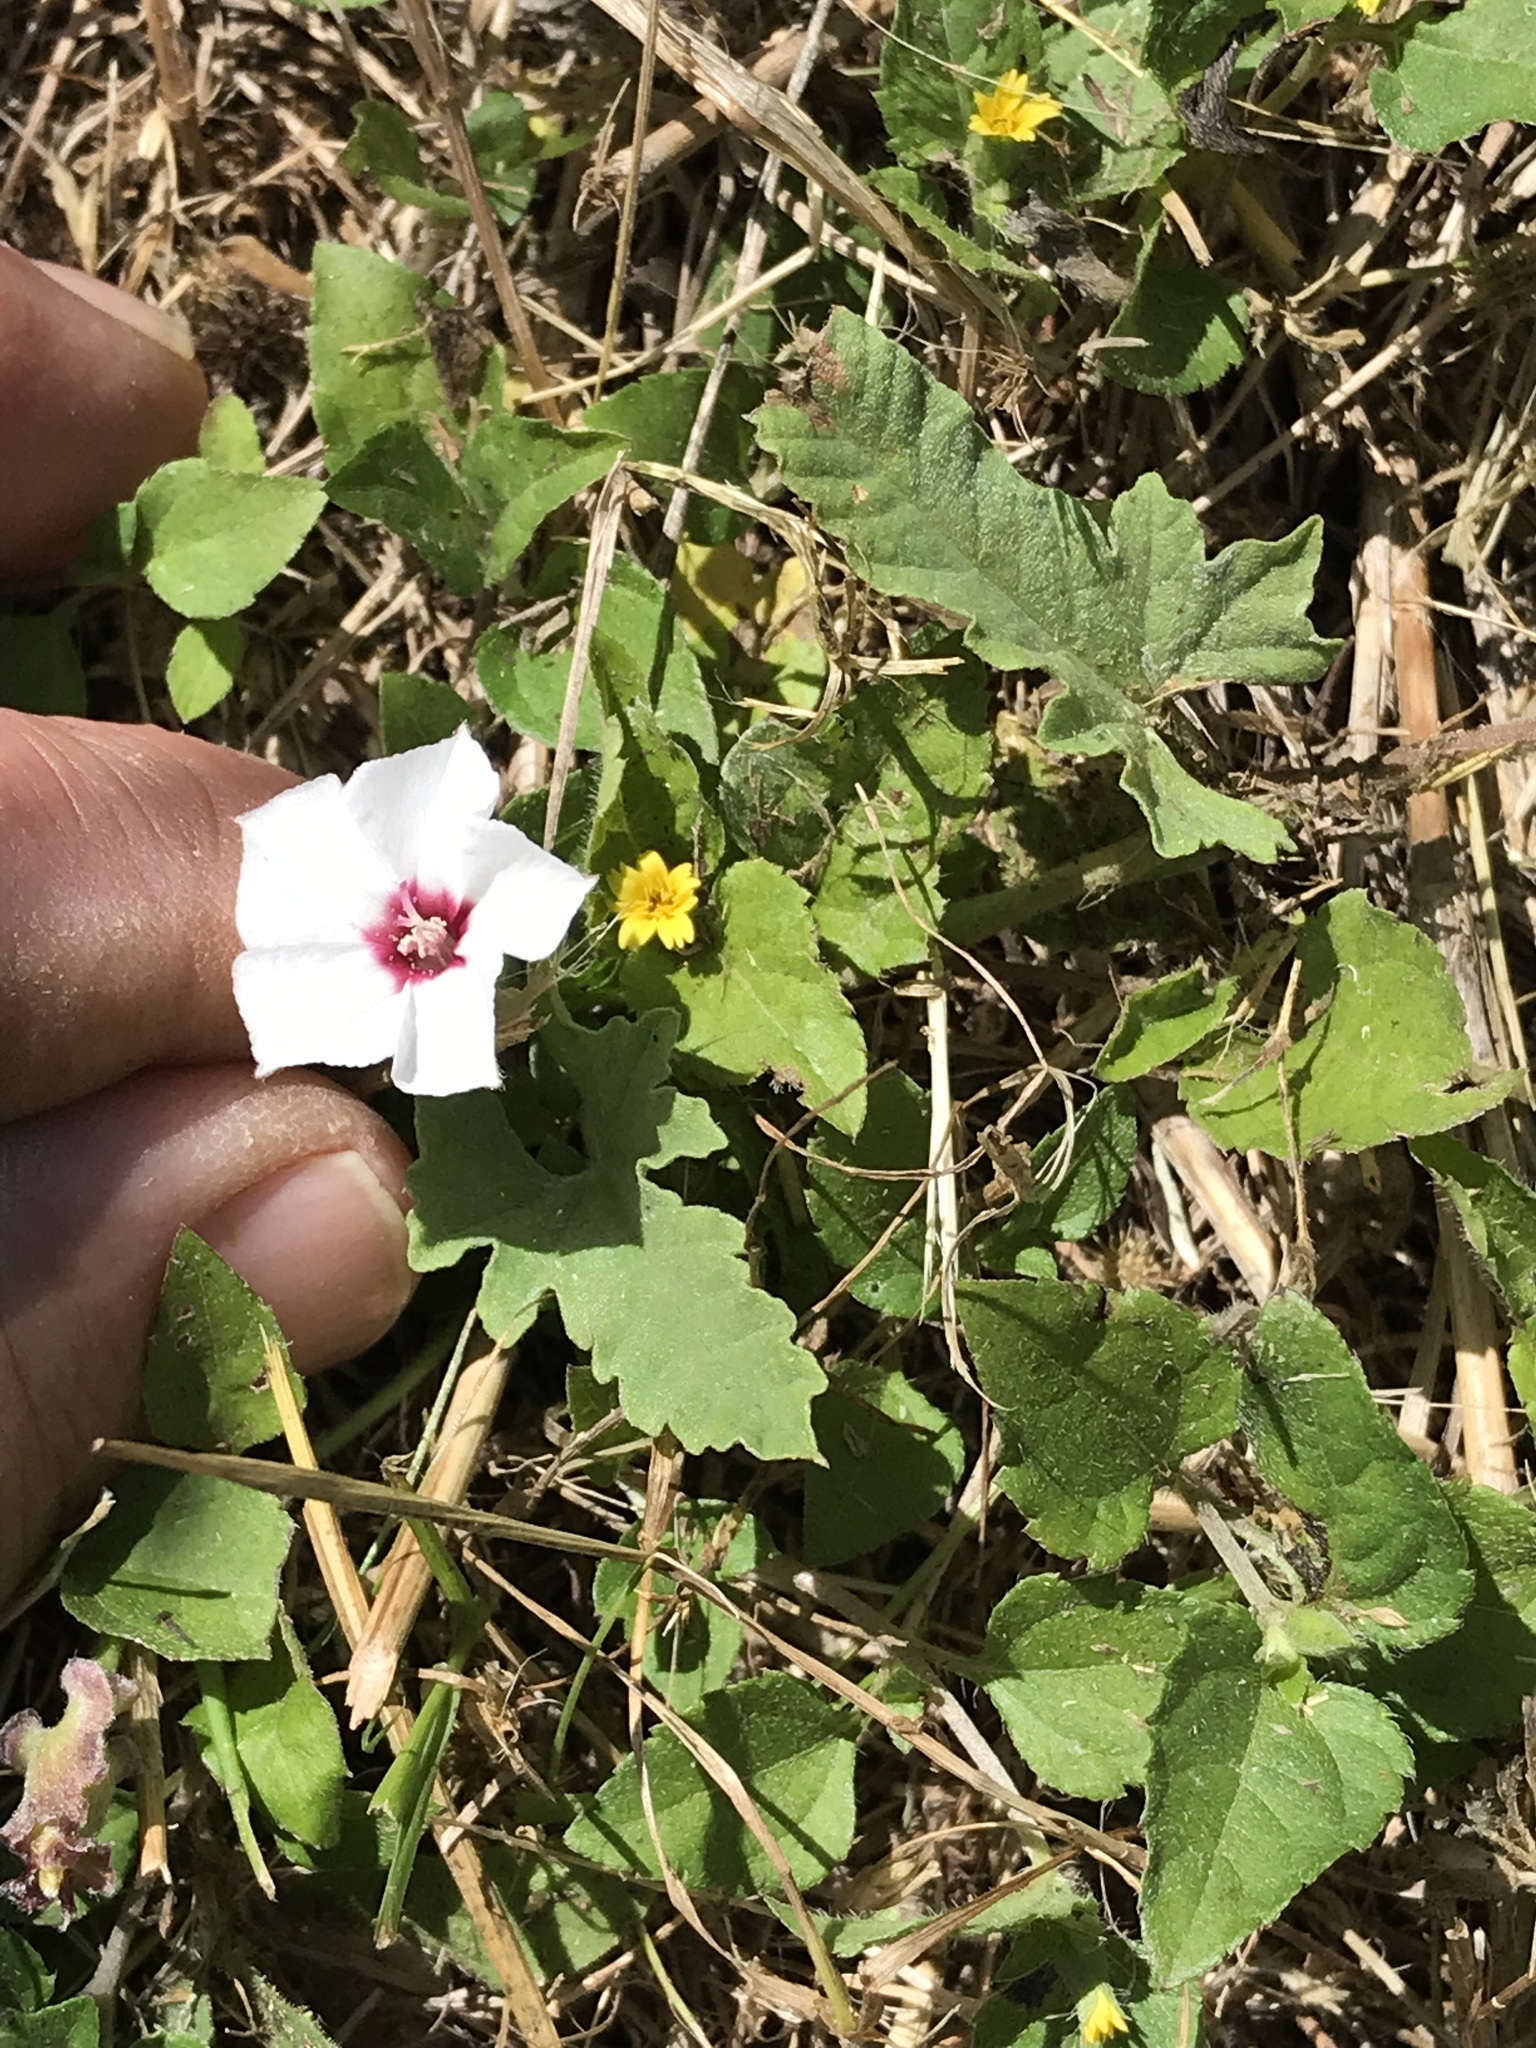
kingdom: Plantae
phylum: Tracheophyta
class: Magnoliopsida
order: Solanales
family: Convolvulaceae
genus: Convolvulus
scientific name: Convolvulus equitans
